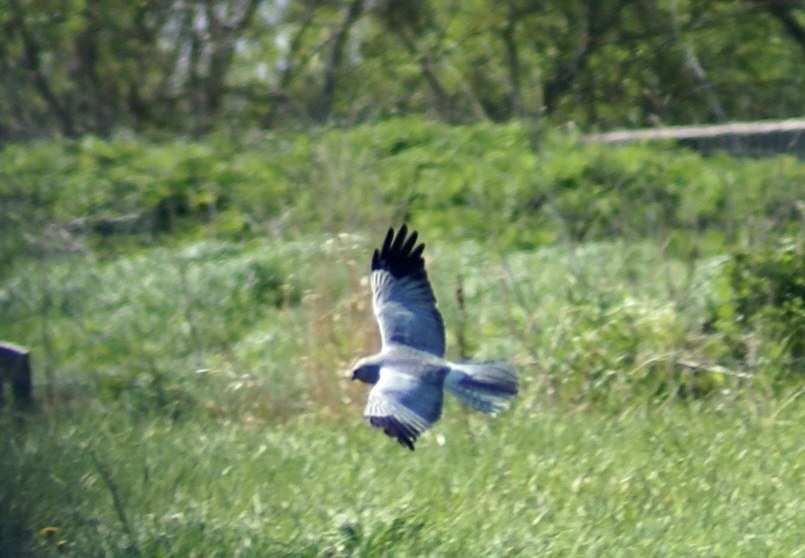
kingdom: Animalia
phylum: Chordata
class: Aves
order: Accipitriformes
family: Accipitridae
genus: Circus
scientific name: Circus cyaneus
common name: Hen harrier
